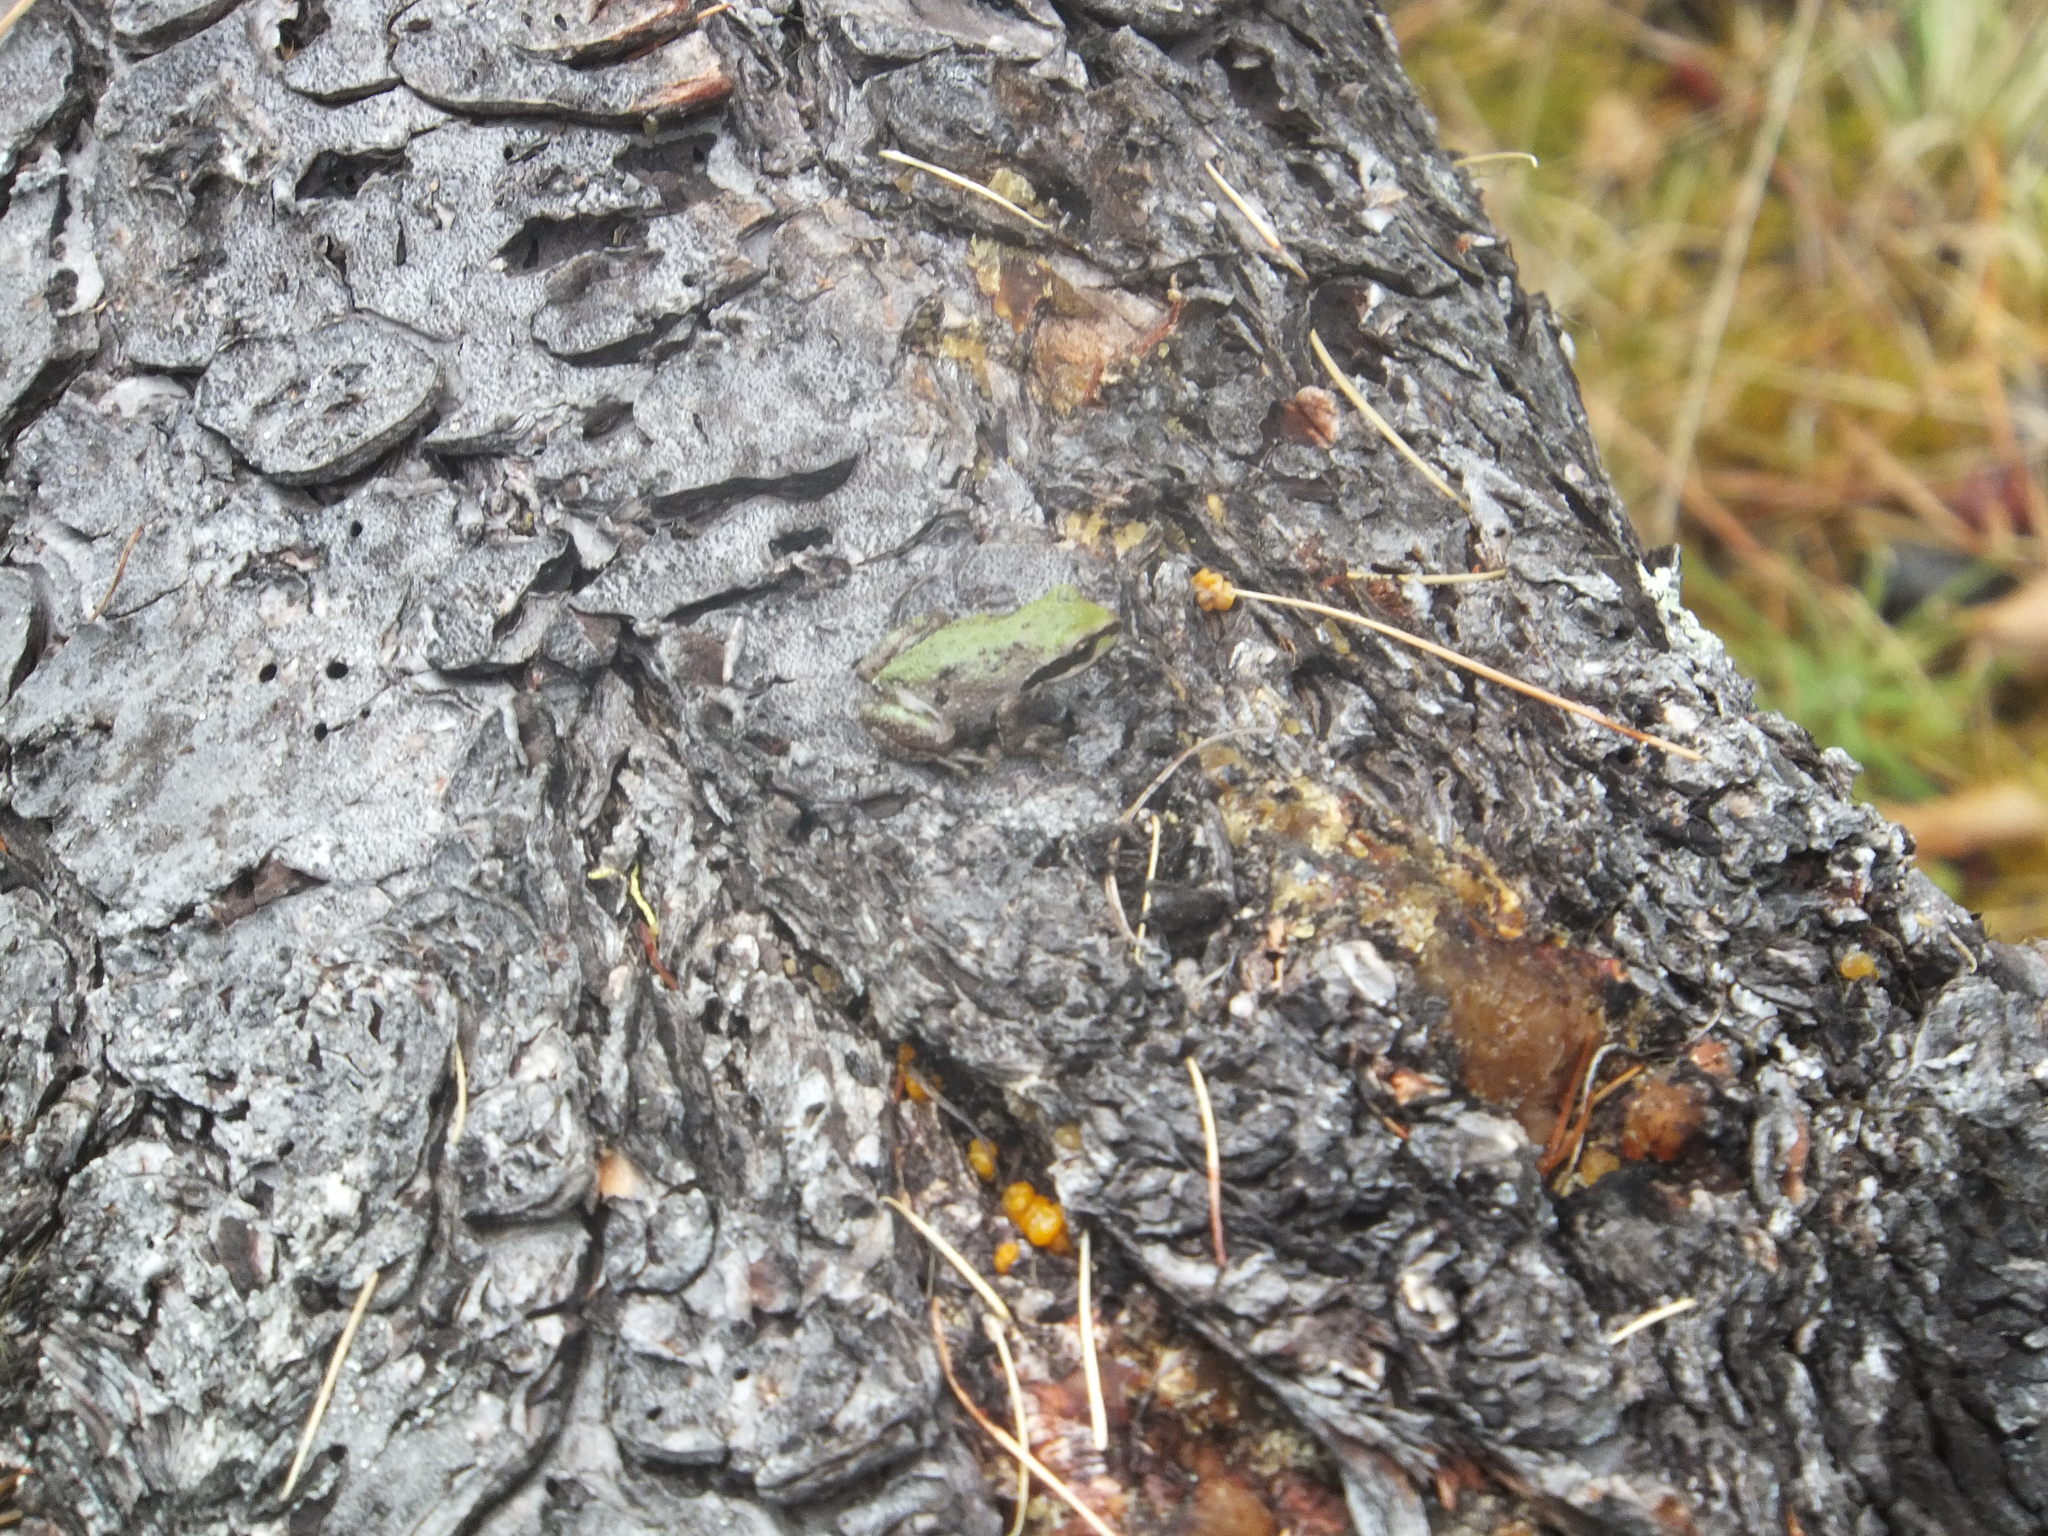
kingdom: Animalia
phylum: Chordata
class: Amphibia
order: Anura
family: Hylidae
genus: Pseudacris
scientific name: Pseudacris regilla
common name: Pacific chorus frog
